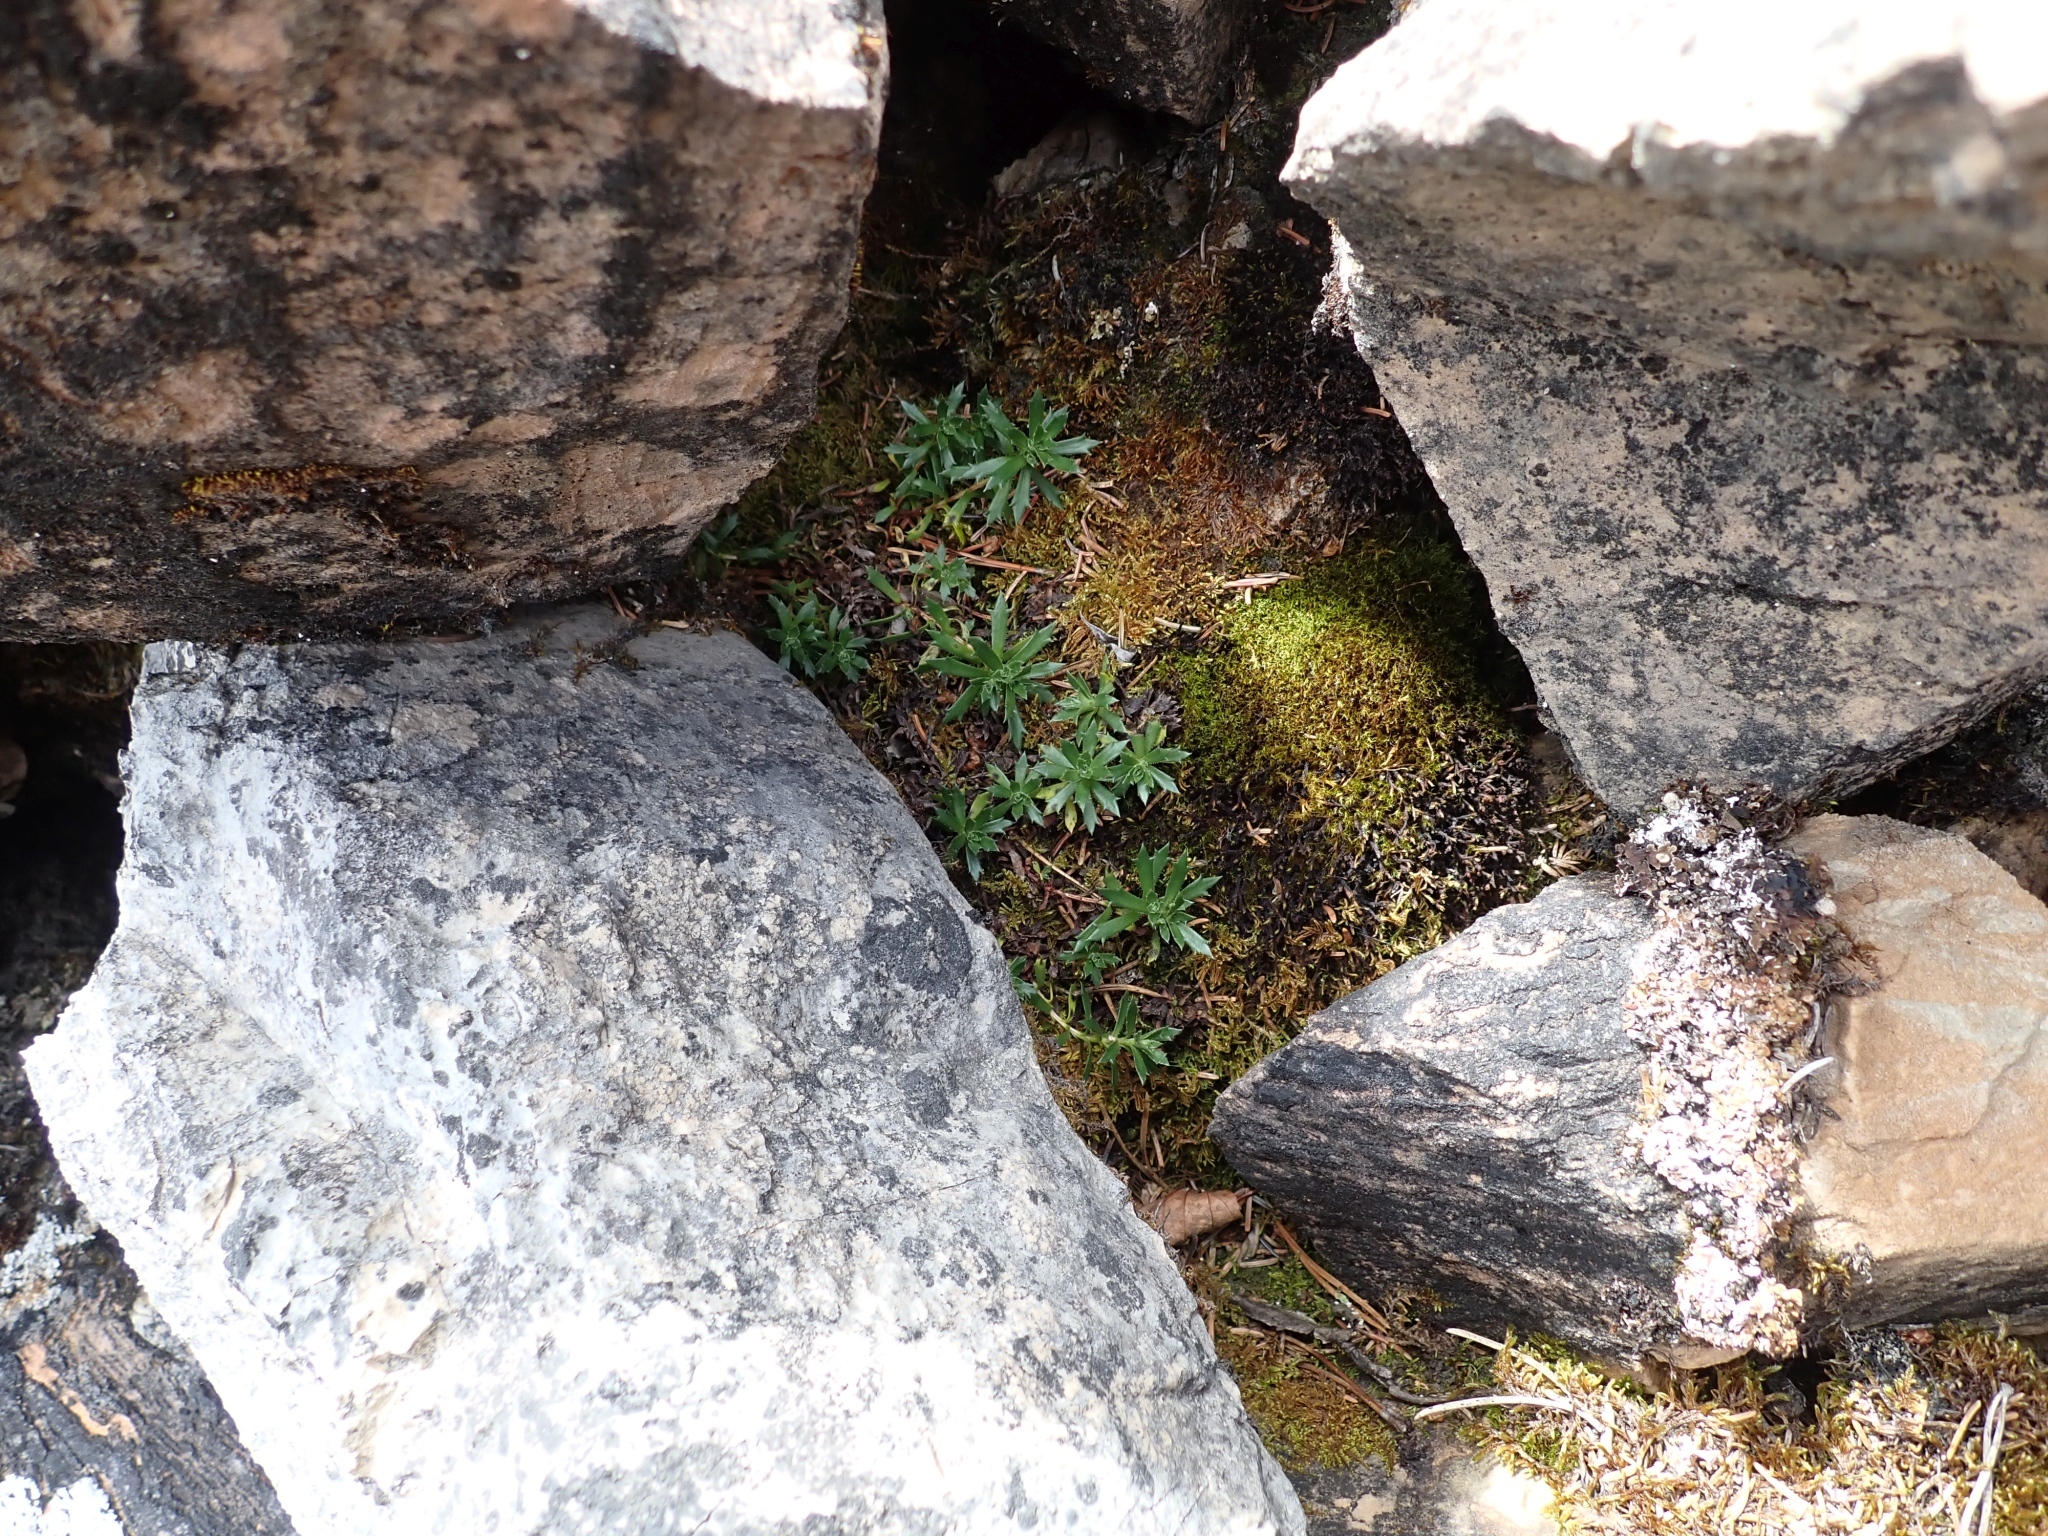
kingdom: Plantae
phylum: Tracheophyta
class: Magnoliopsida
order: Saxifragales
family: Saxifragaceae
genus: Saxifraga
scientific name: Saxifraga tricuspidata
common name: Prickly saxifrage
